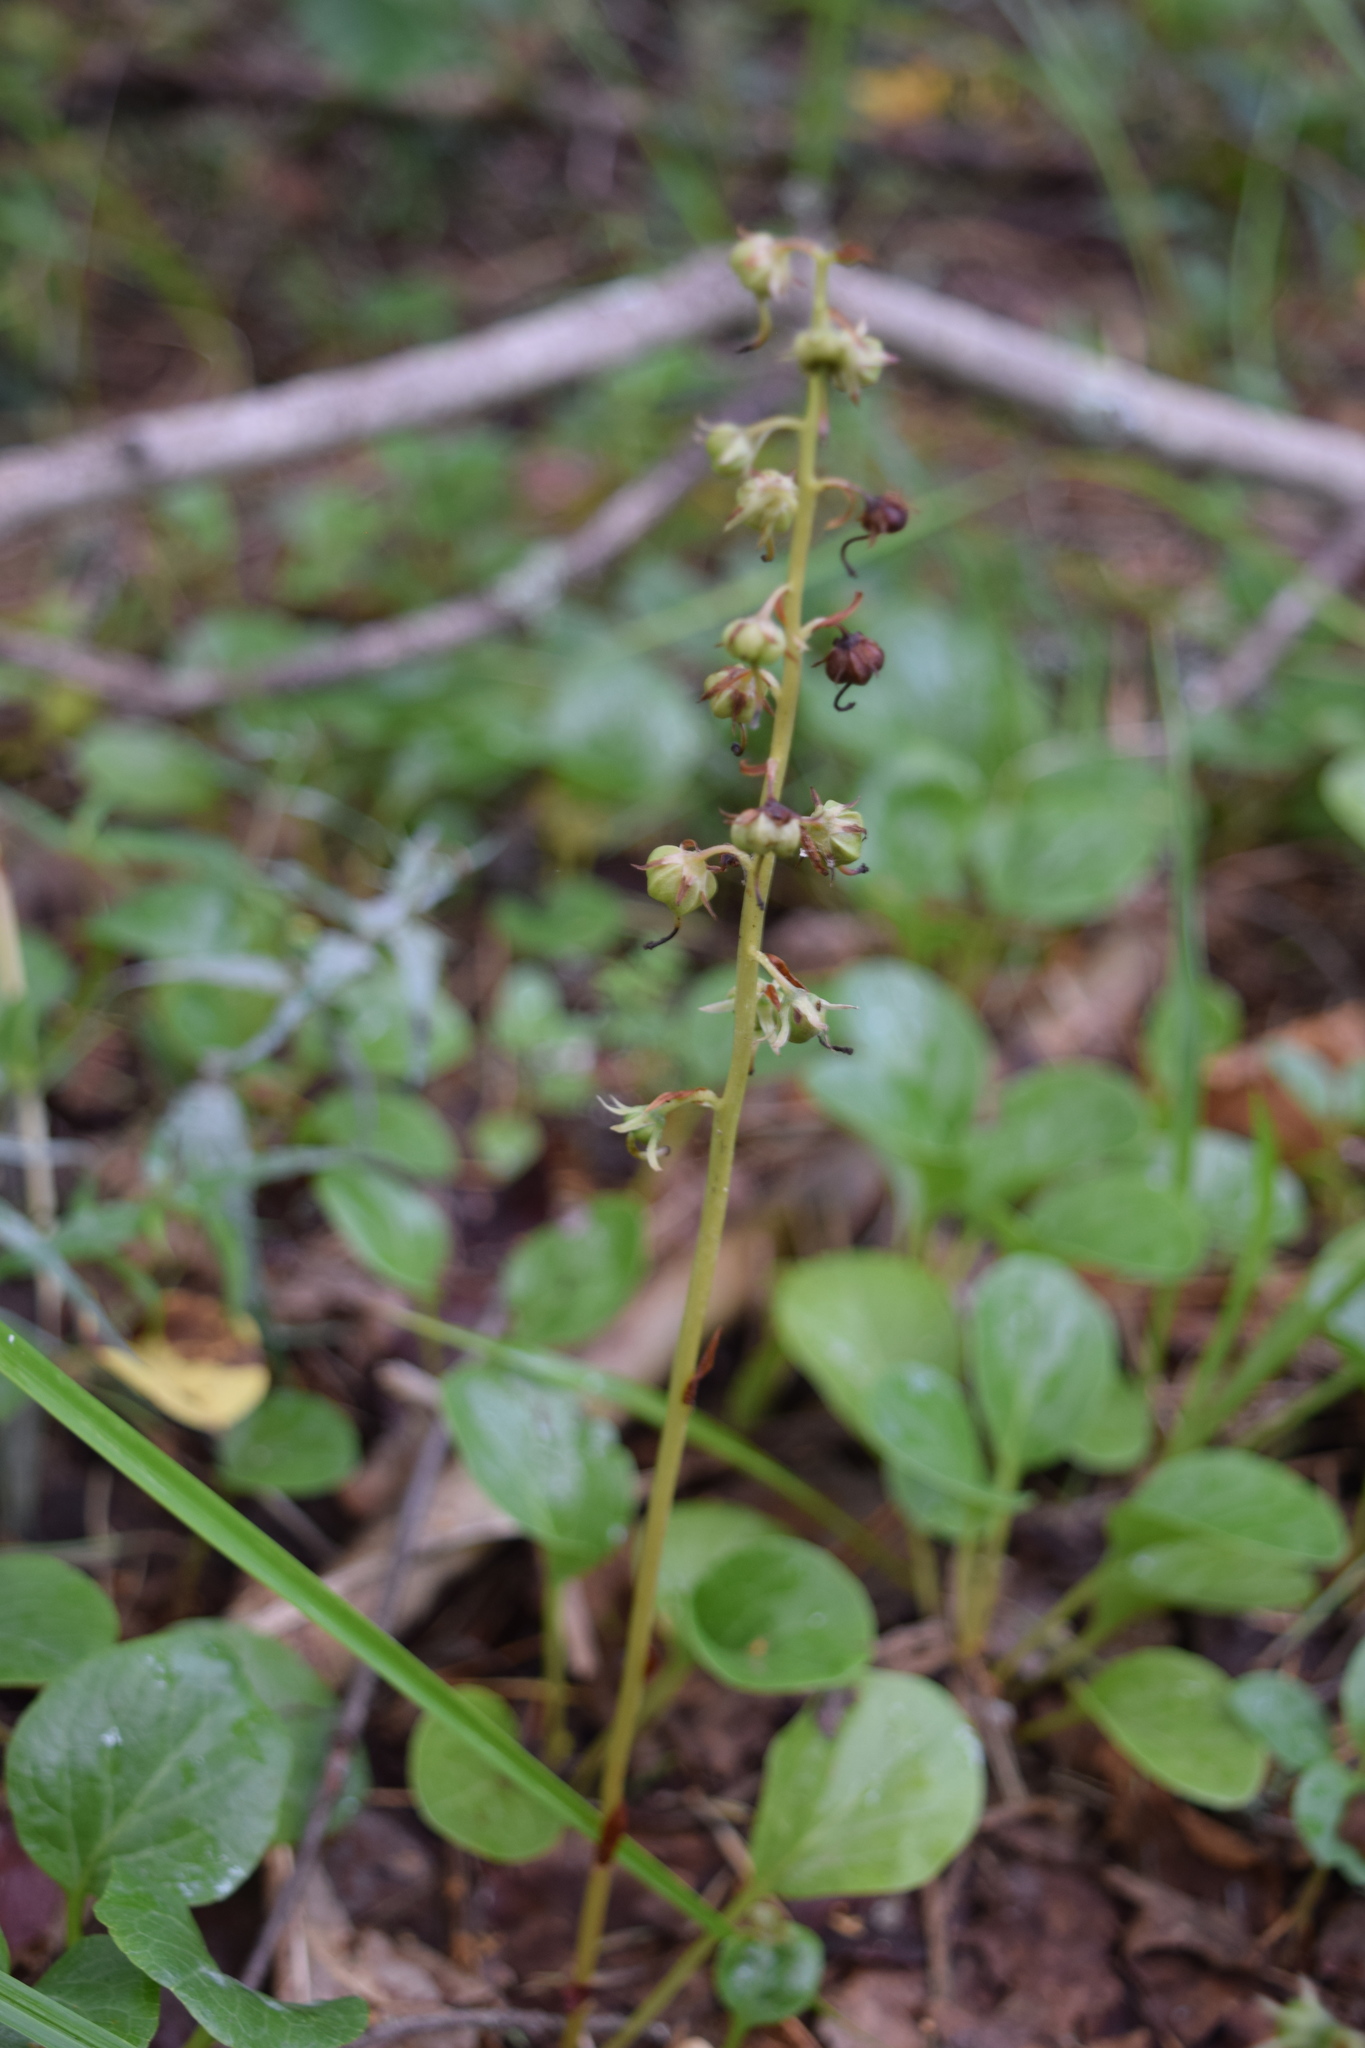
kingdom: Plantae
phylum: Tracheophyta
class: Magnoliopsida
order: Ericales
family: Ericaceae
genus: Pyrola
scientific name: Pyrola rotundifolia
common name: Round-leaved wintergreen
